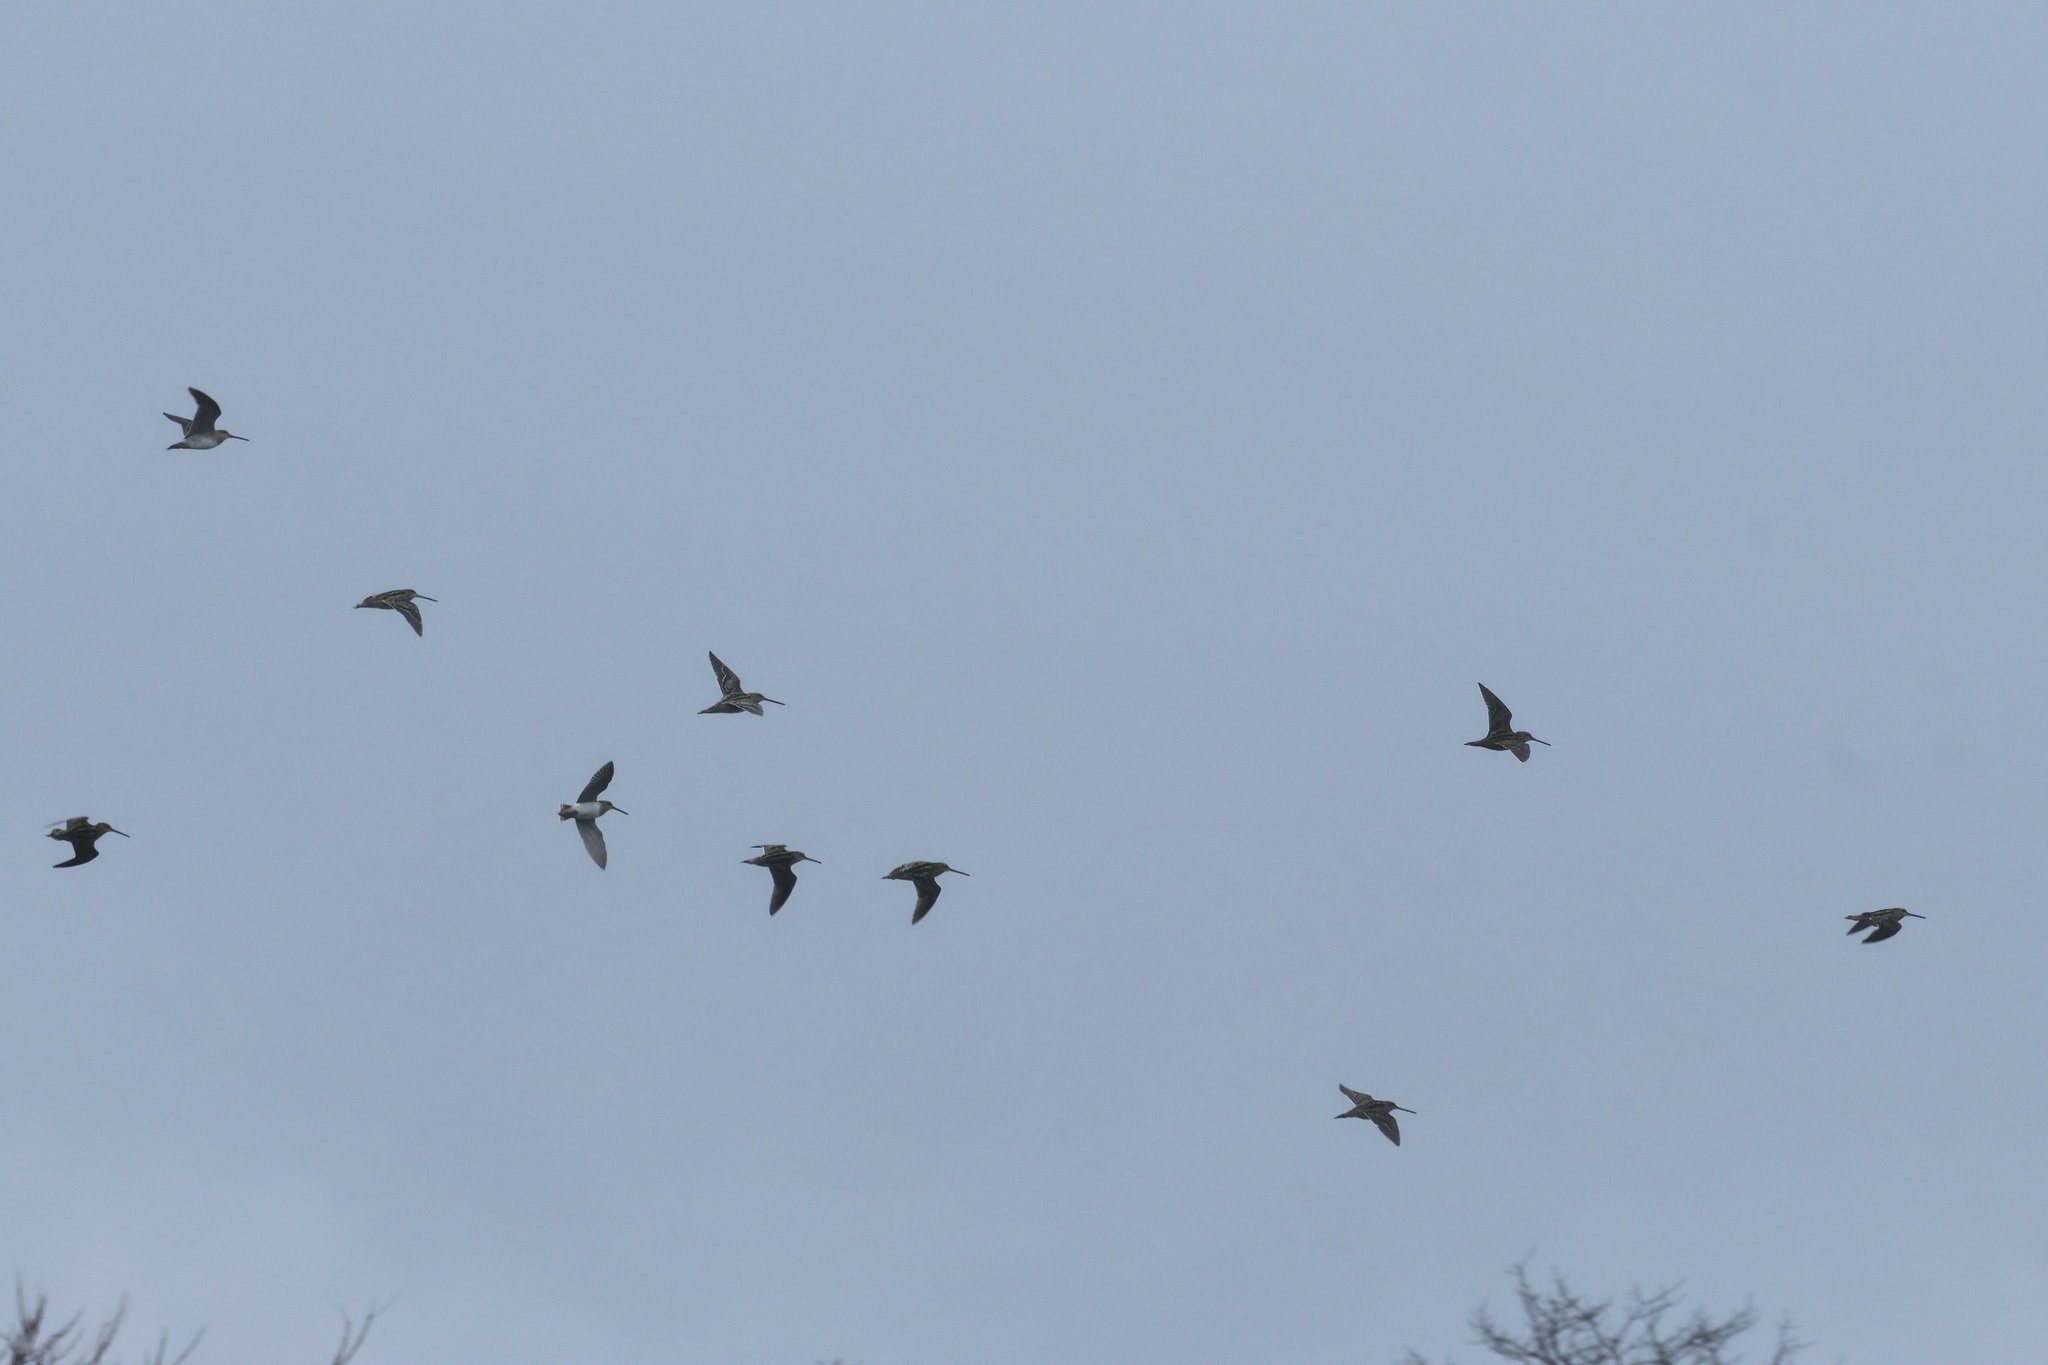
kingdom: Animalia
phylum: Chordata
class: Aves
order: Charadriiformes
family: Scolopacidae
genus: Gallinago
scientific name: Gallinago delicata
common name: Wilson's snipe
